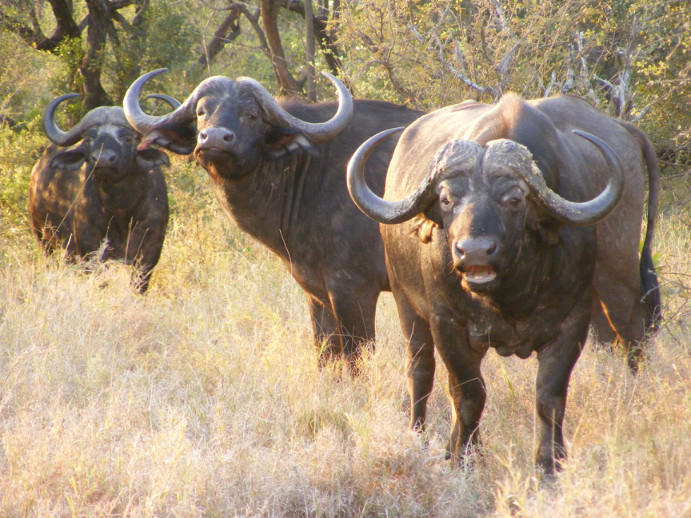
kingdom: Animalia
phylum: Chordata
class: Mammalia
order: Artiodactyla
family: Bovidae
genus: Syncerus
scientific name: Syncerus caffer
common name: African buffalo
